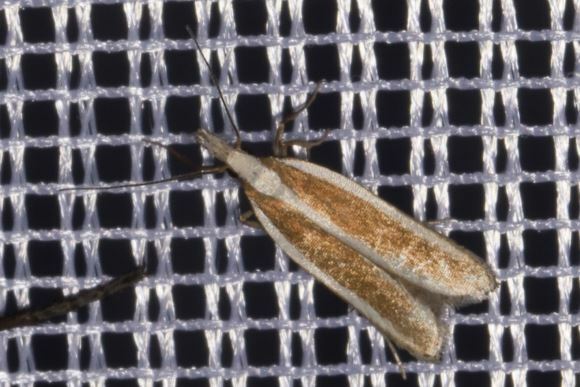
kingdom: Animalia
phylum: Arthropoda
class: Insecta
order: Lepidoptera
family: Gelechiidae
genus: Dichomeris
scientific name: Dichomeris marginella
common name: Juniper webworm
